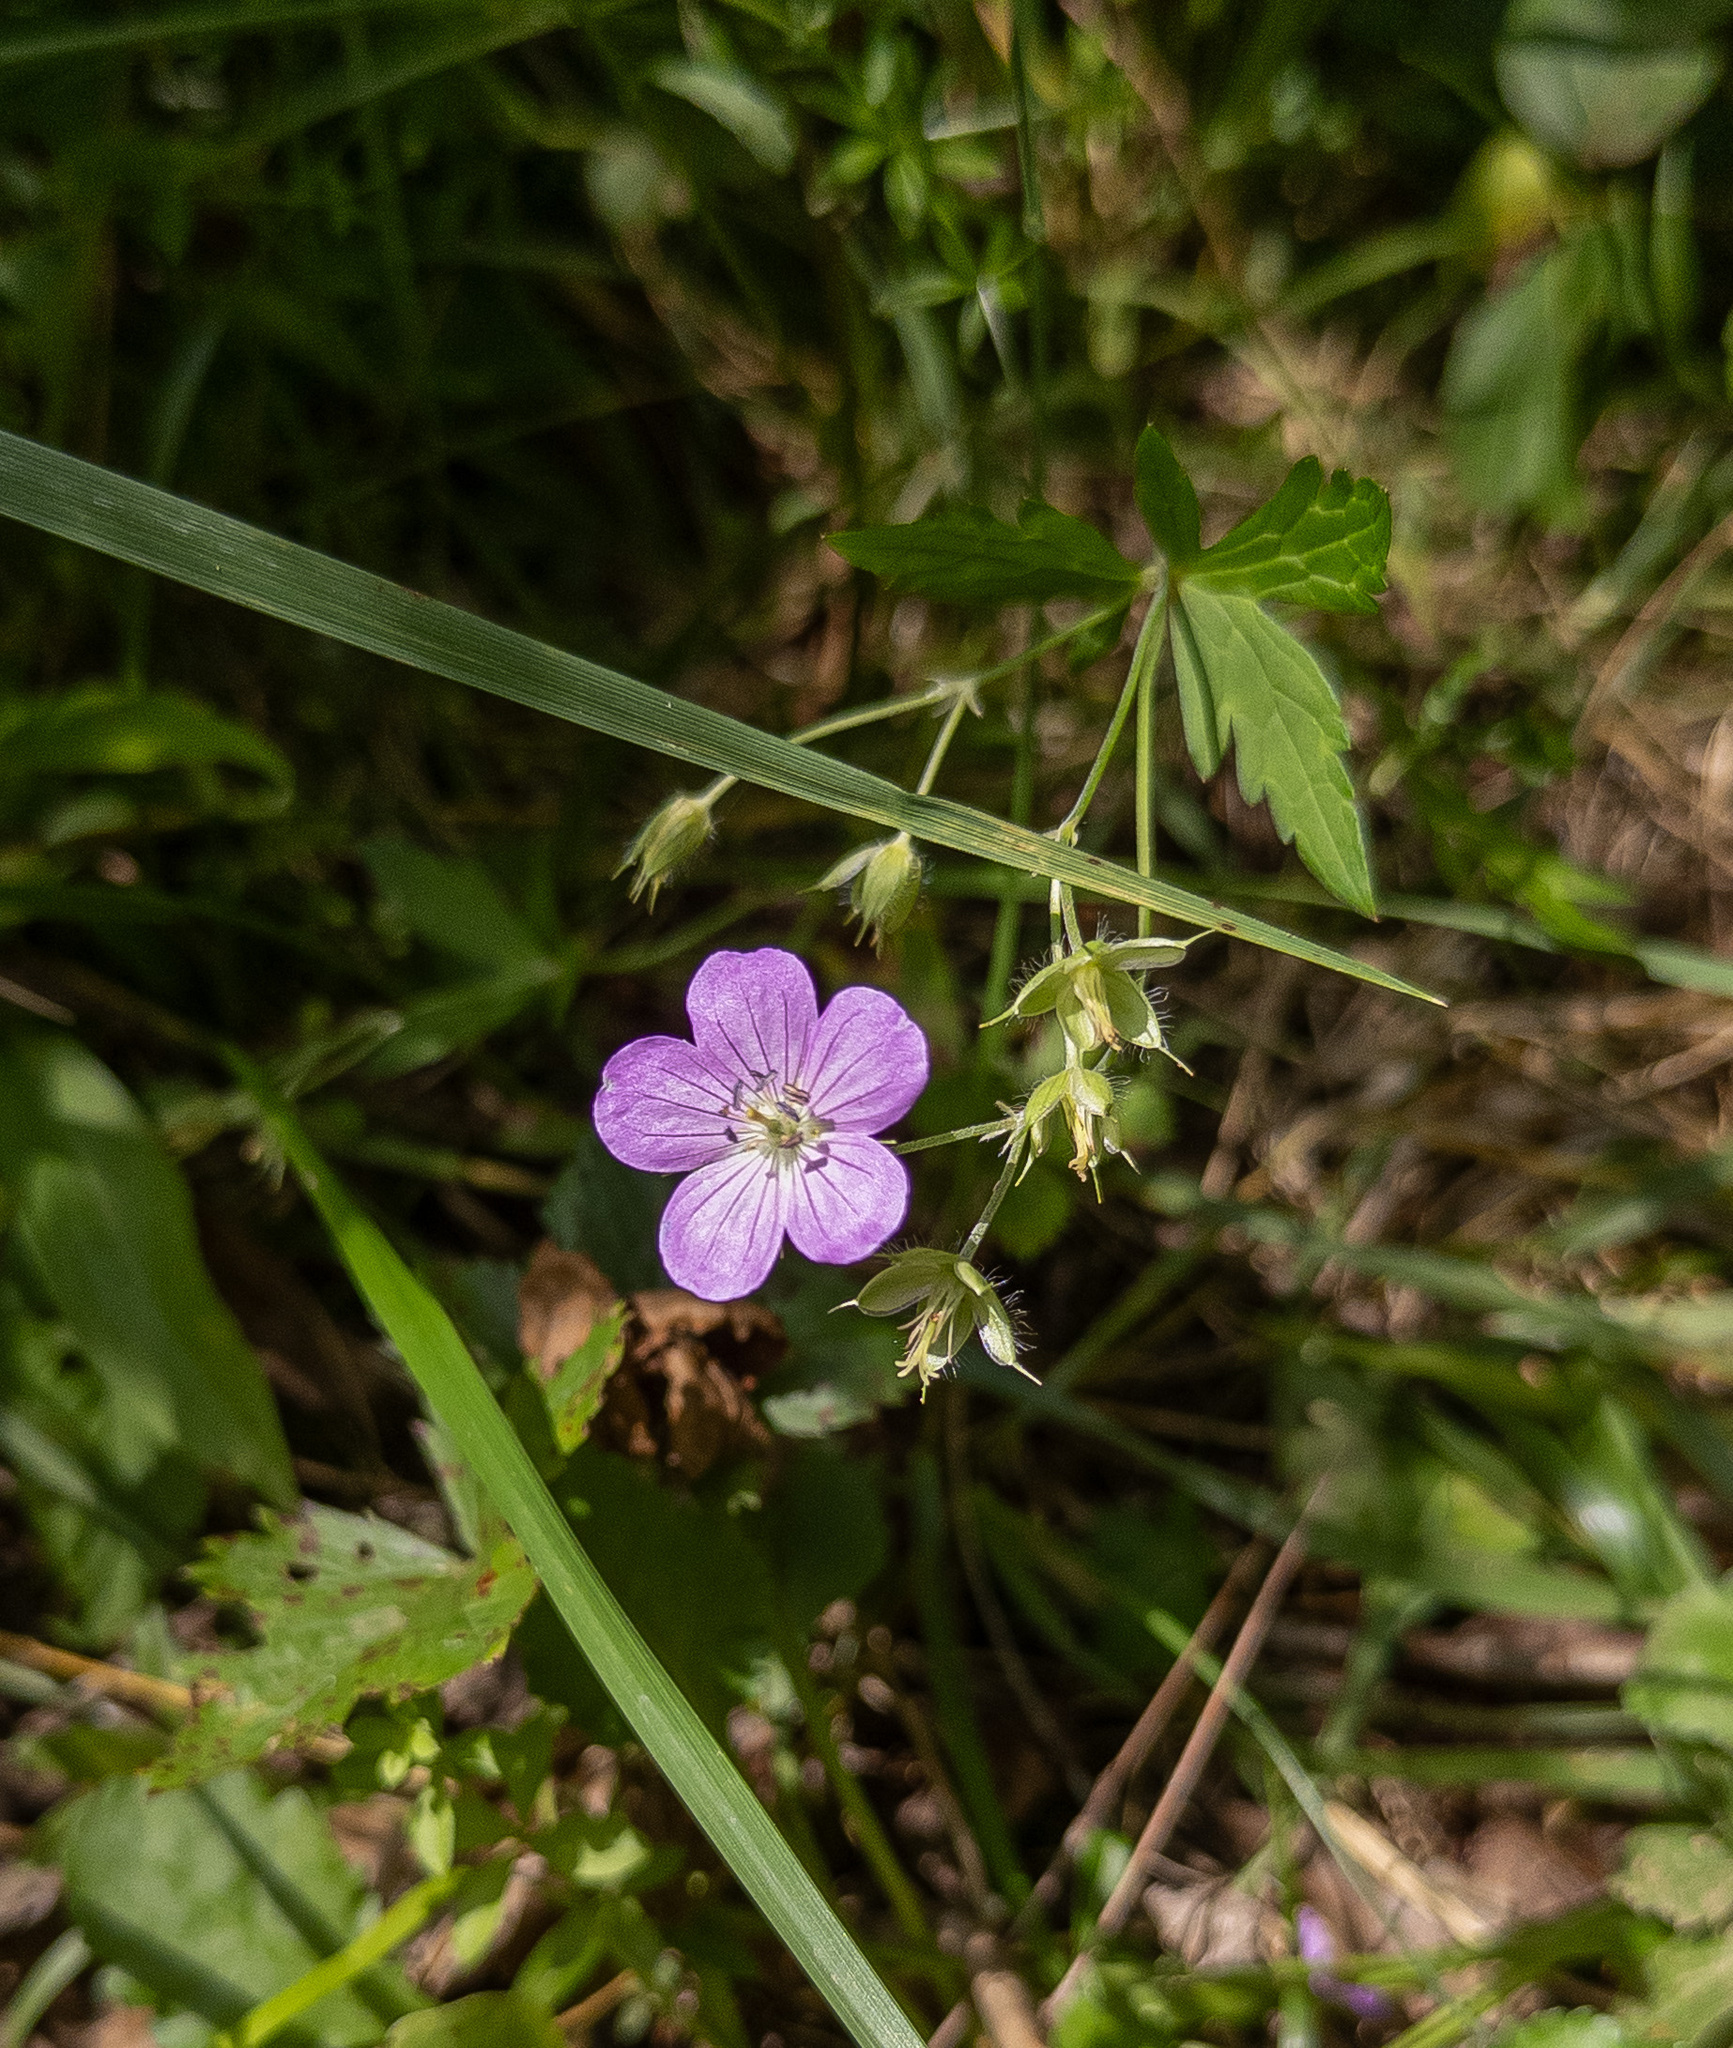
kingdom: Plantae
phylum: Tracheophyta
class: Magnoliopsida
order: Geraniales
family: Geraniaceae
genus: Geranium
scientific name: Geranium maculatum
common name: Spotted geranium
